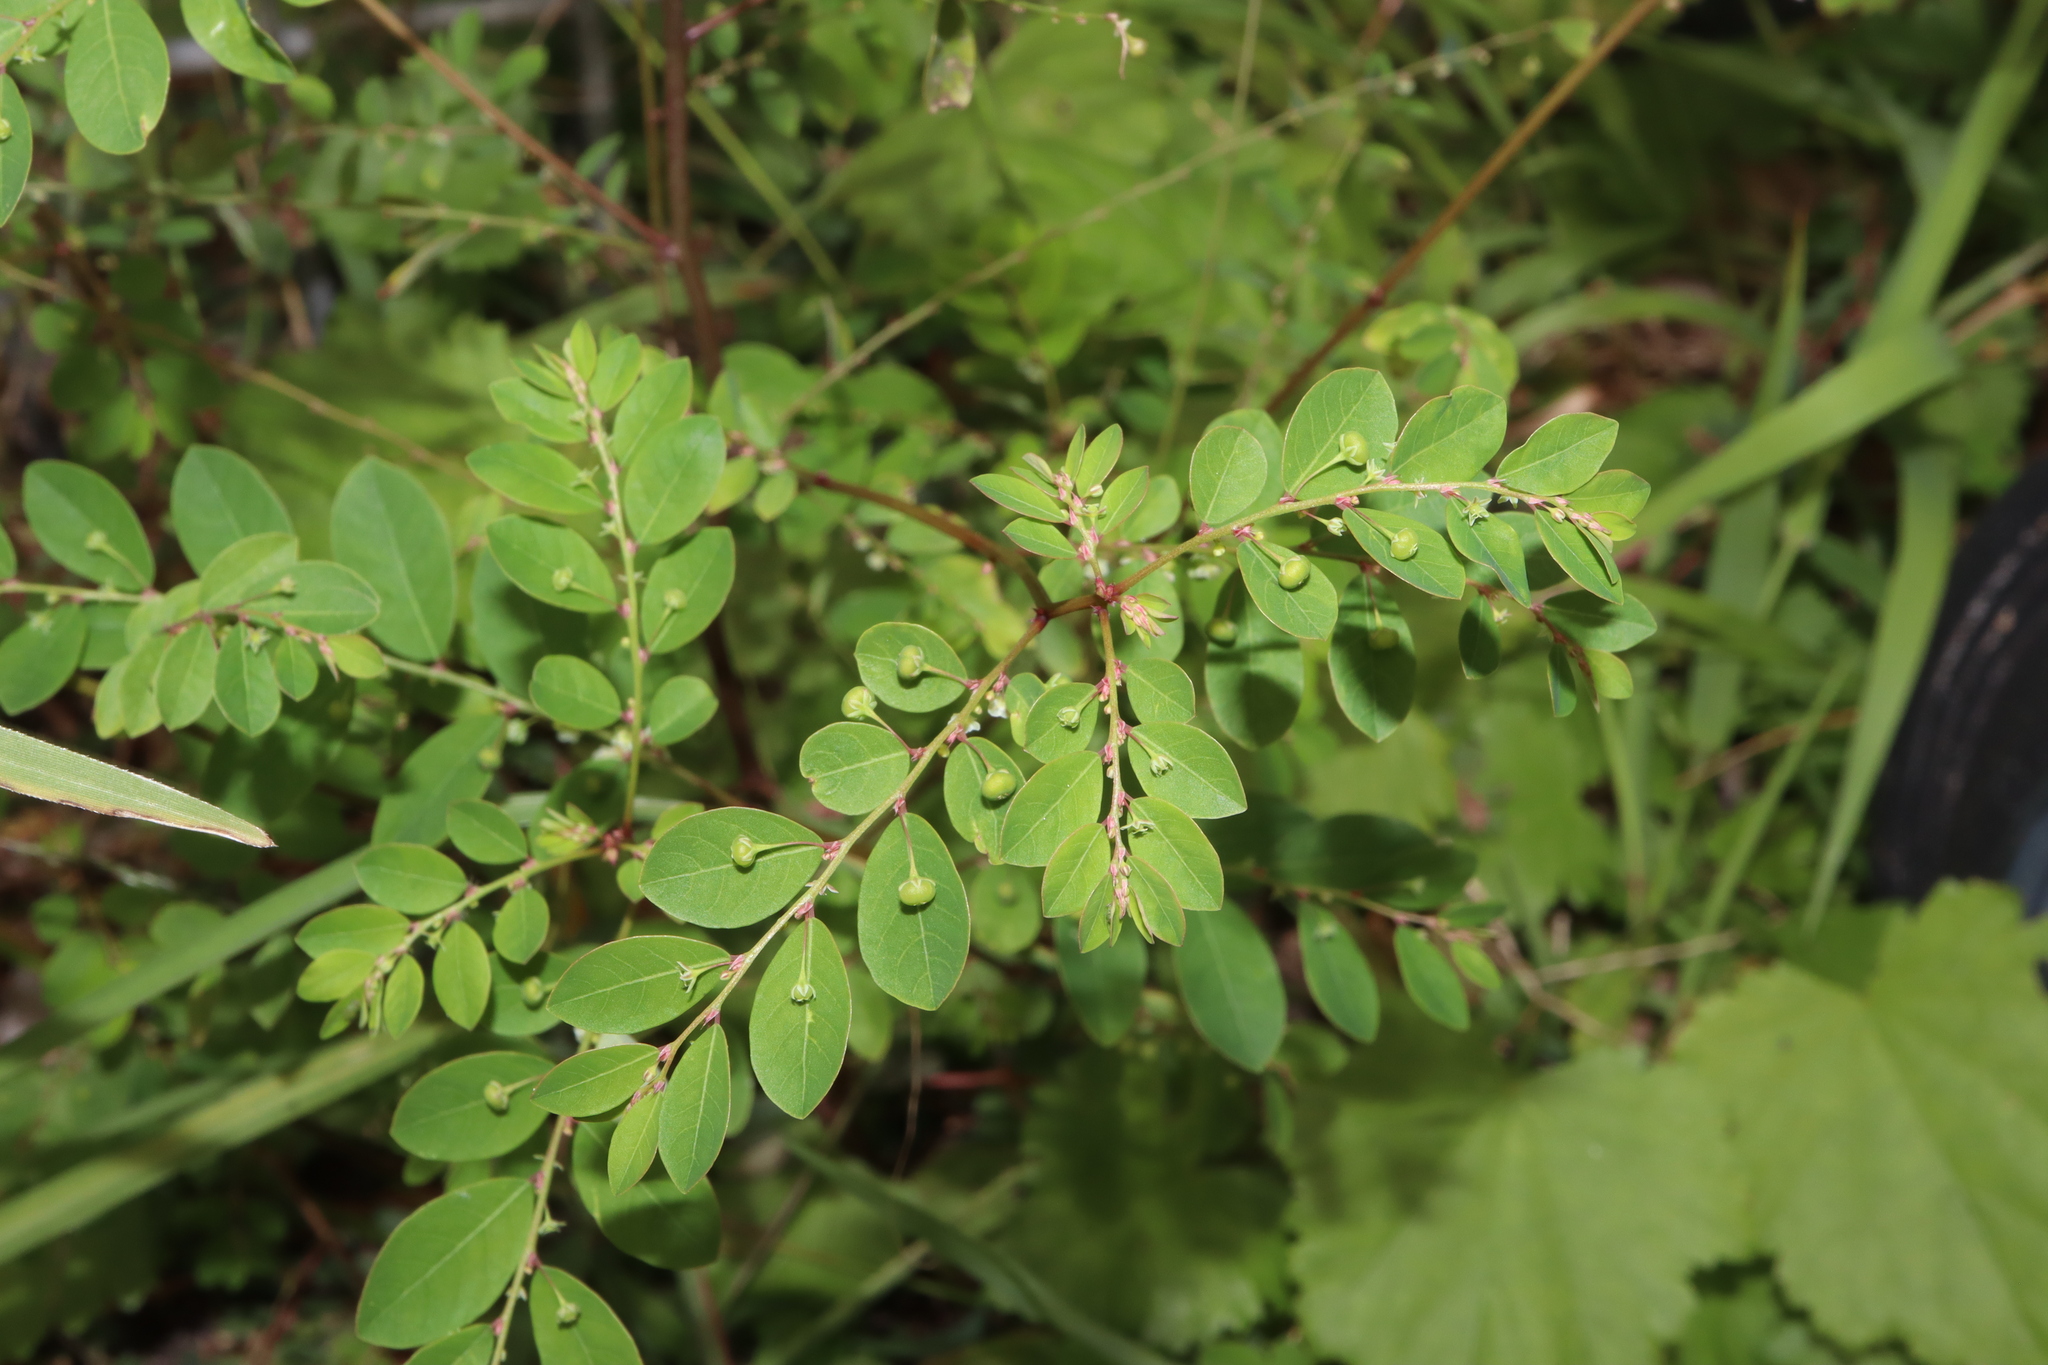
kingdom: Plantae
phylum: Tracheophyta
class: Magnoliopsida
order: Malpighiales
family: Phyllanthaceae
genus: Phyllanthus
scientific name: Phyllanthus tenellus
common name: Mascarene island leaf-flower
